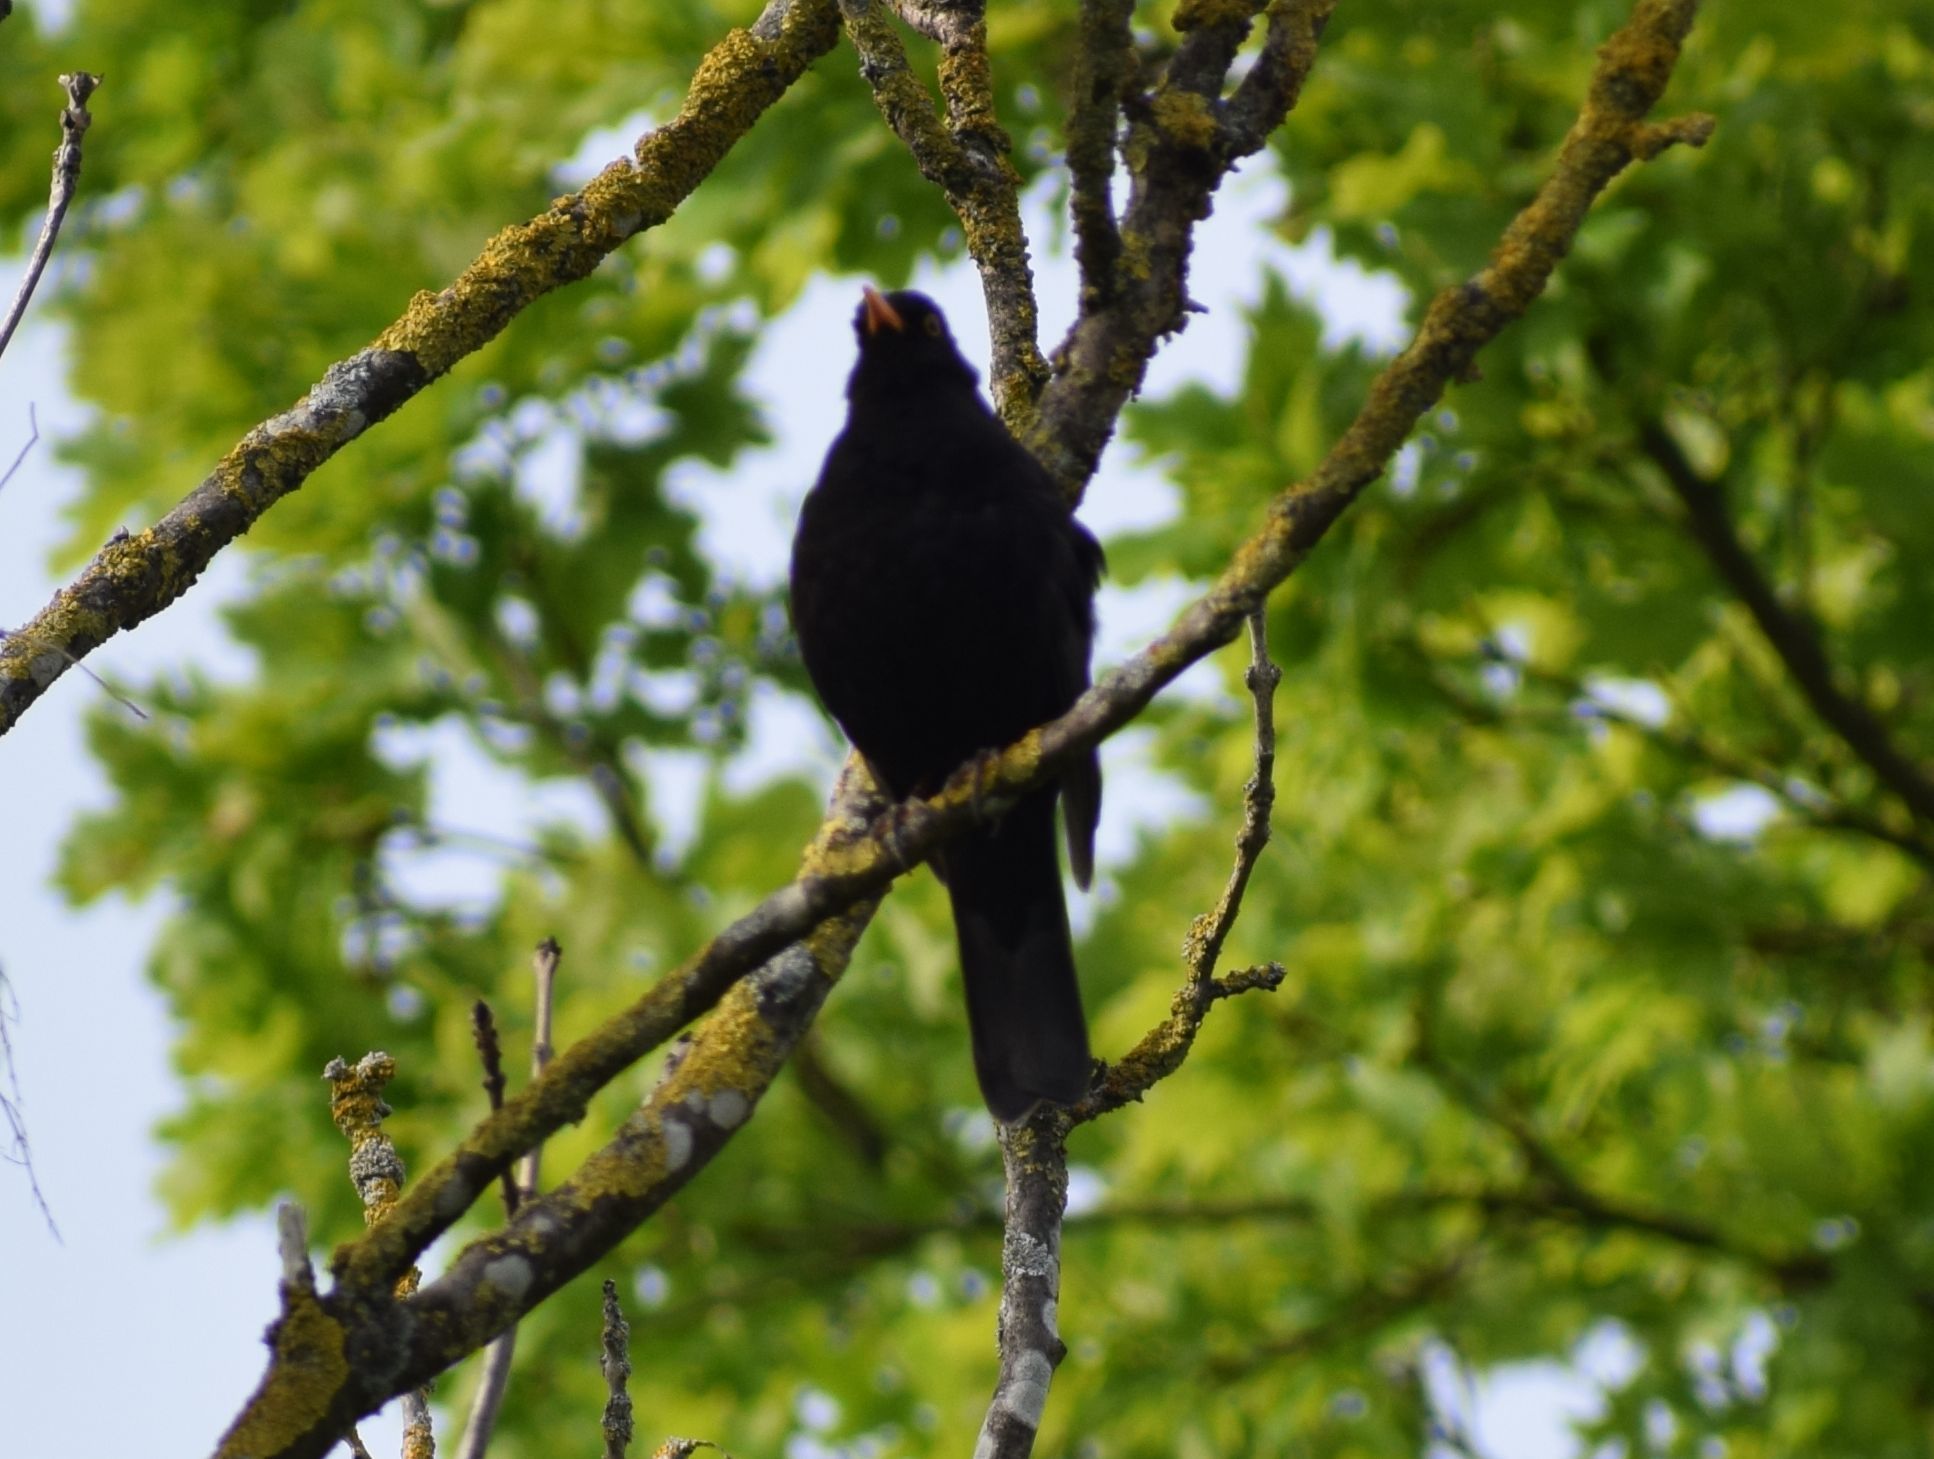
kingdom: Animalia
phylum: Chordata
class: Aves
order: Passeriformes
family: Turdidae
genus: Turdus
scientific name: Turdus merula
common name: Common blackbird
